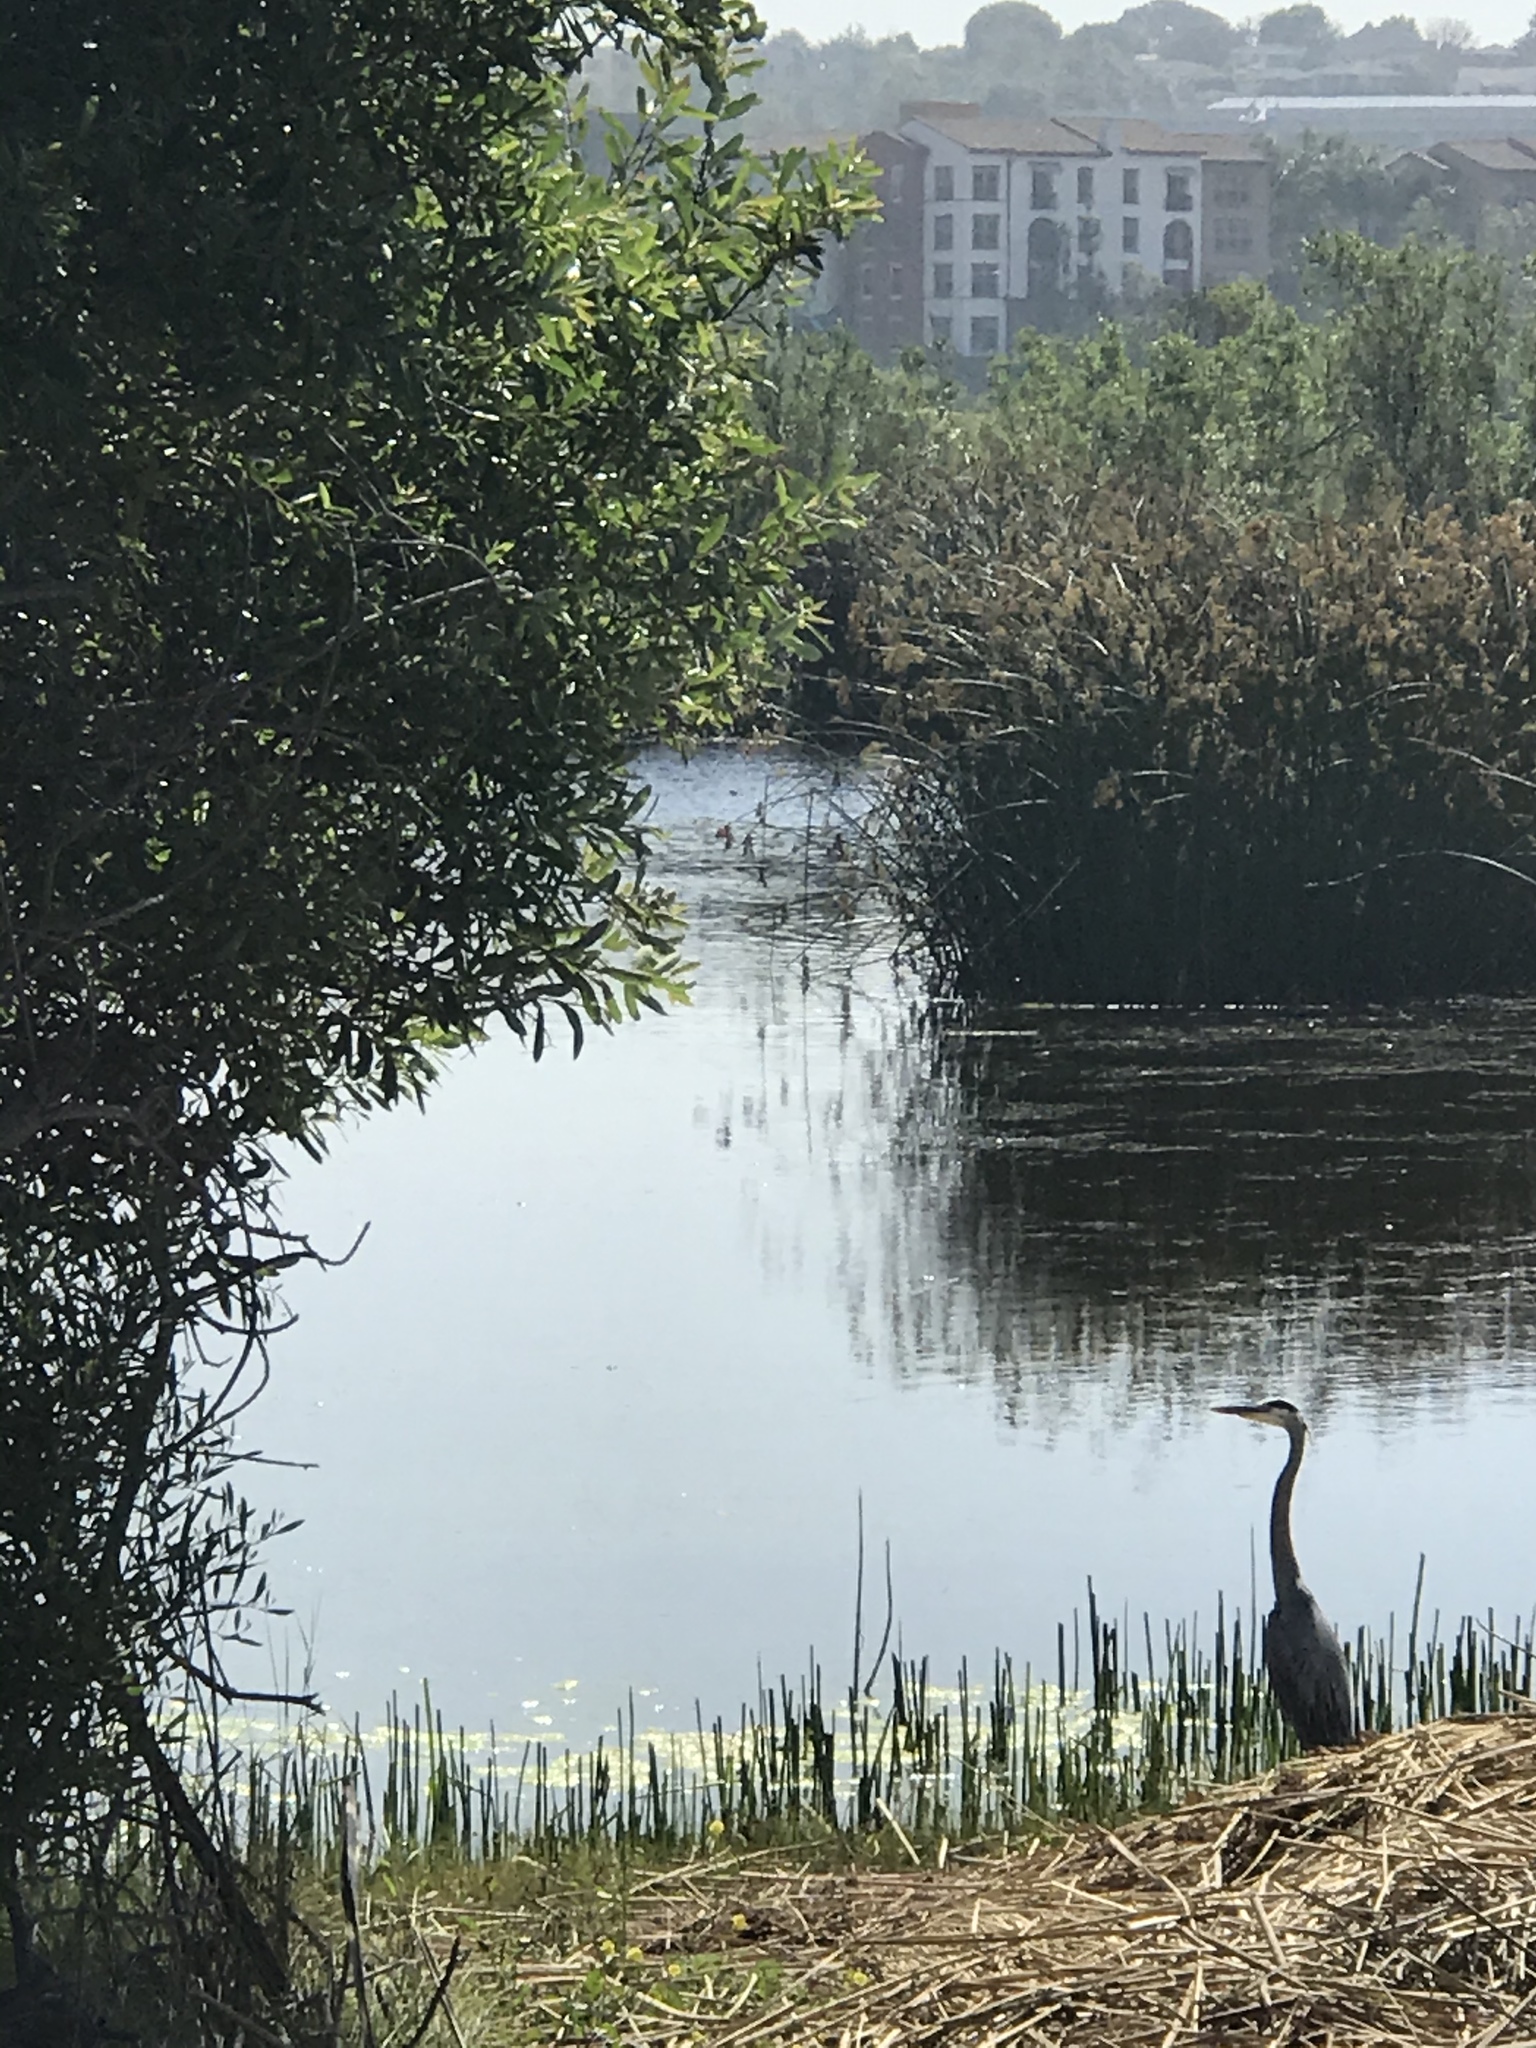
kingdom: Animalia
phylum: Chordata
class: Aves
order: Pelecaniformes
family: Ardeidae
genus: Ardea
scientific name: Ardea herodias
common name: Great blue heron
